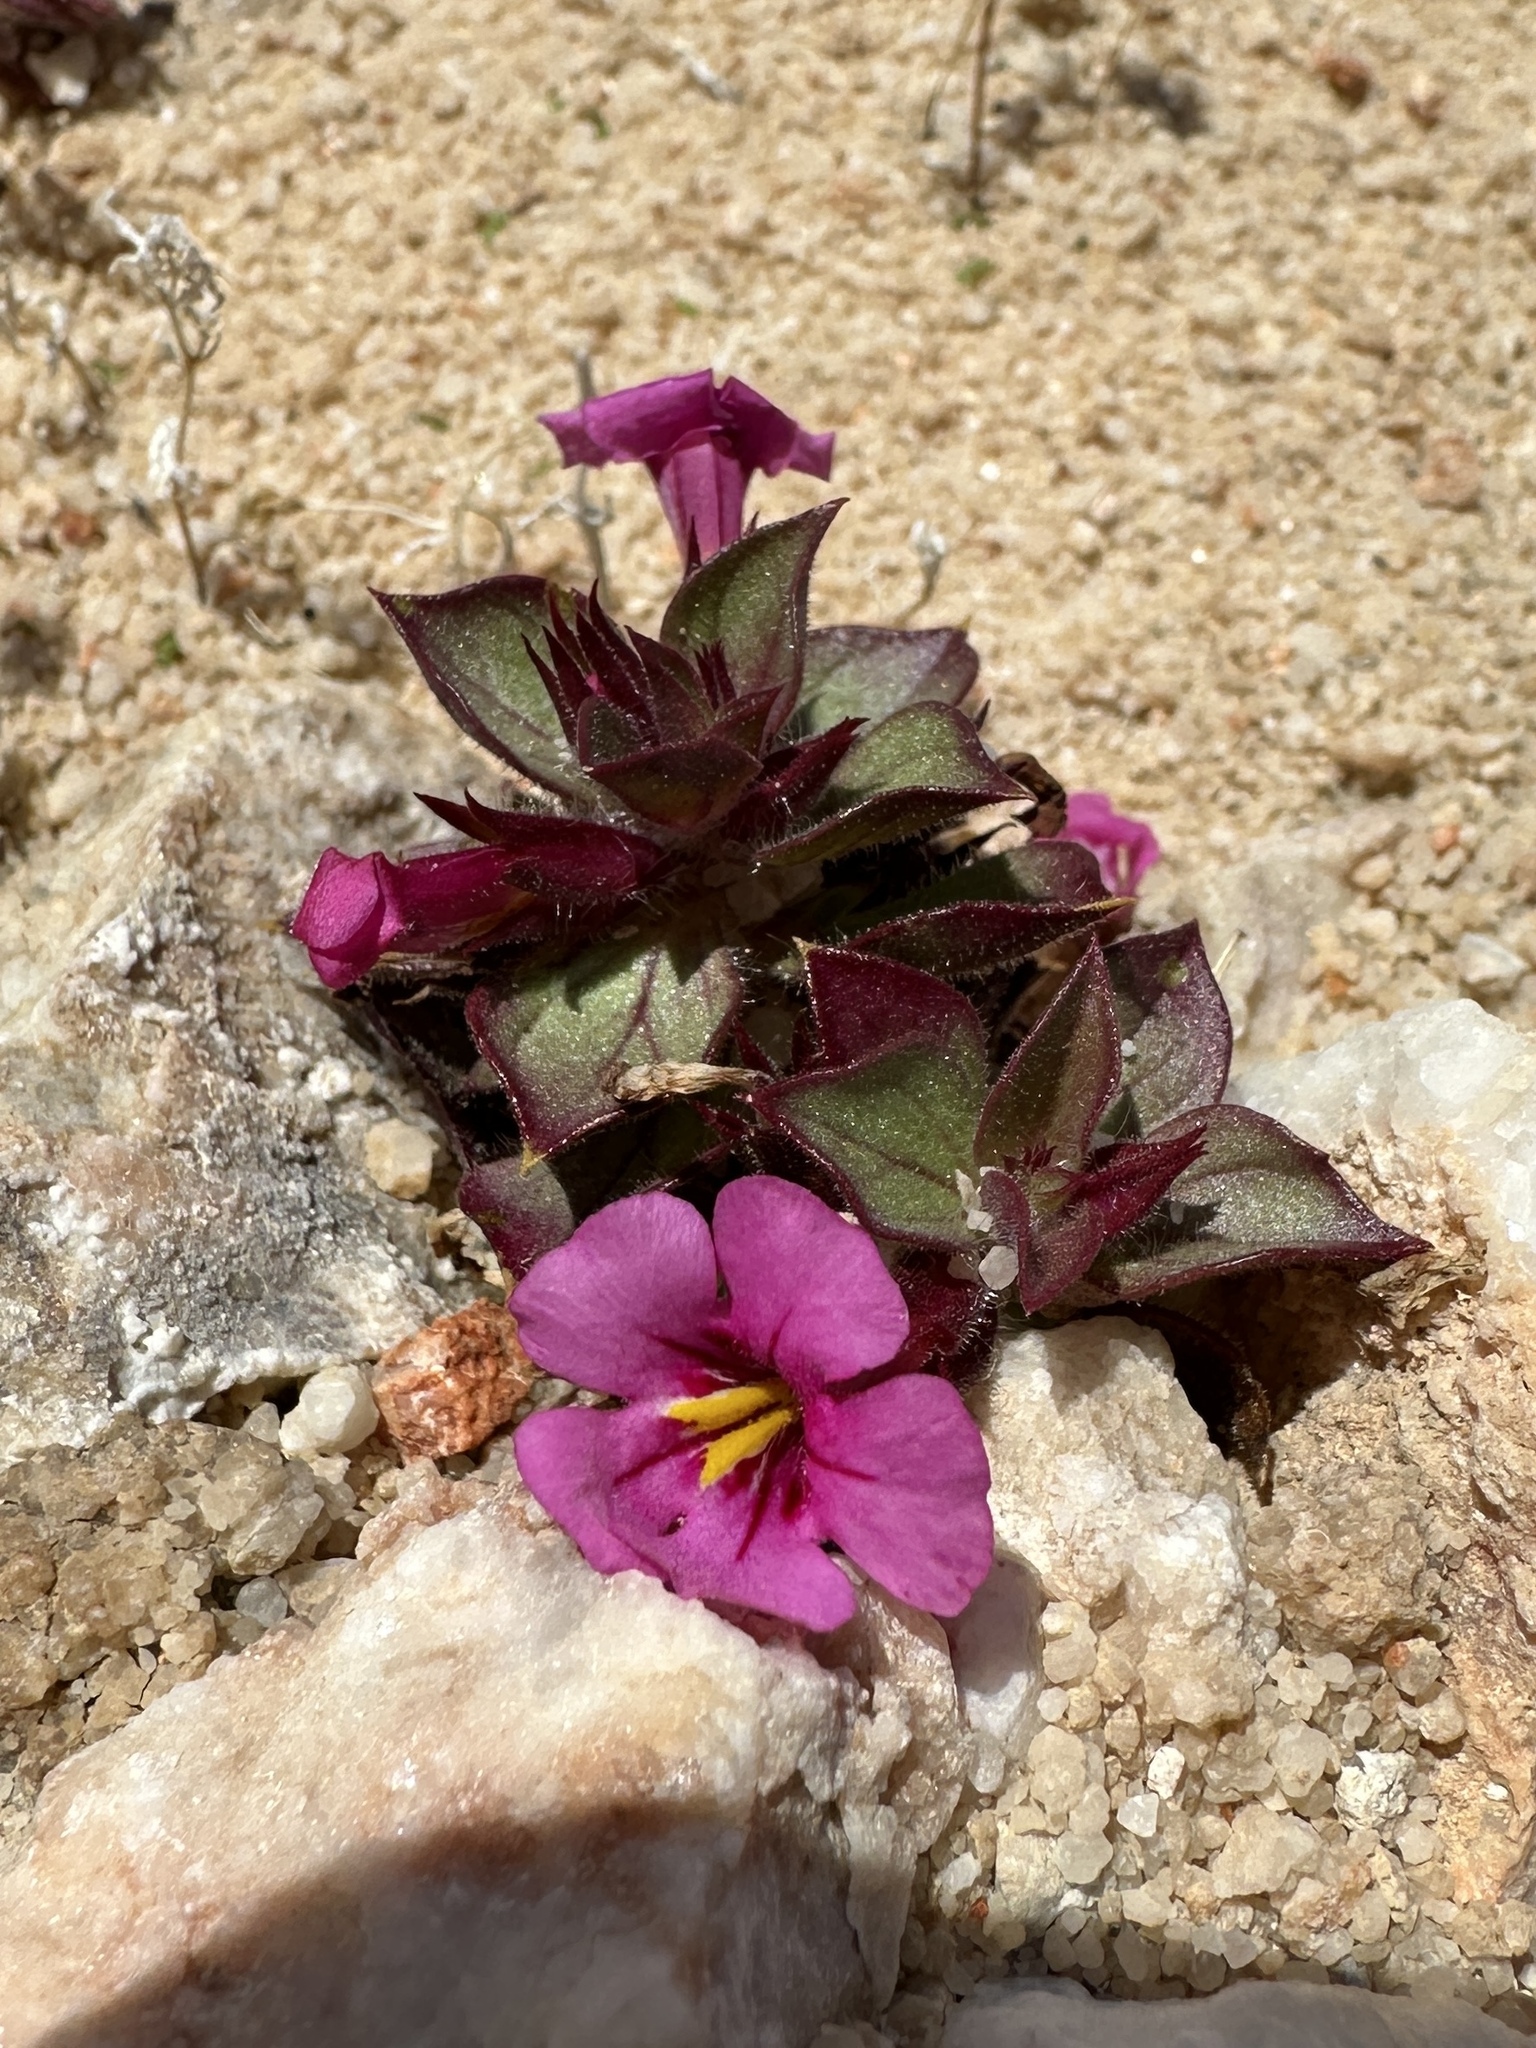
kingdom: Plantae
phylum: Tracheophyta
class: Magnoliopsida
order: Lamiales
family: Phrymaceae
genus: Diplacus
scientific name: Diplacus bigelovii
